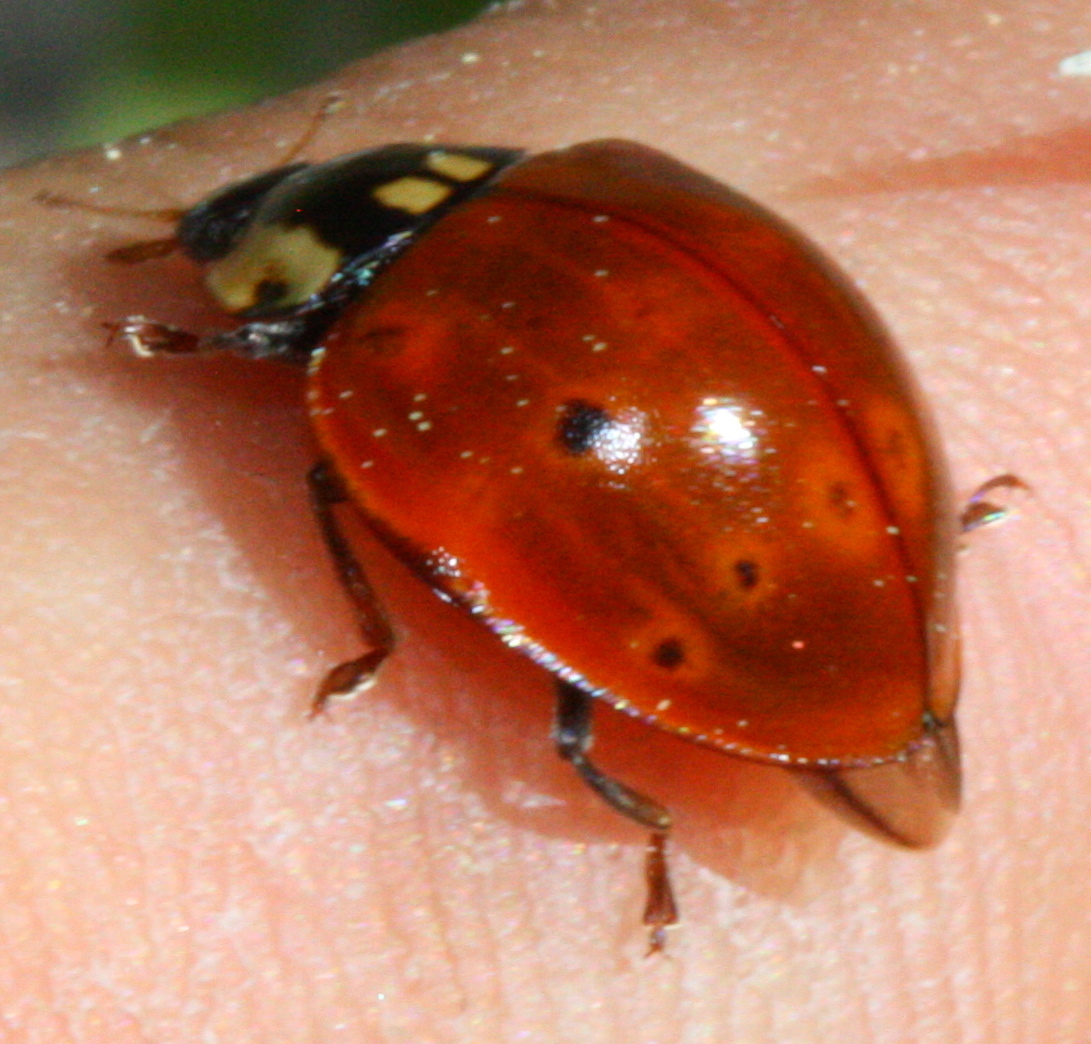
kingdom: Animalia
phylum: Arthropoda
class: Insecta
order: Coleoptera
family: Coccinellidae
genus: Anatis
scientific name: Anatis rathvoni
